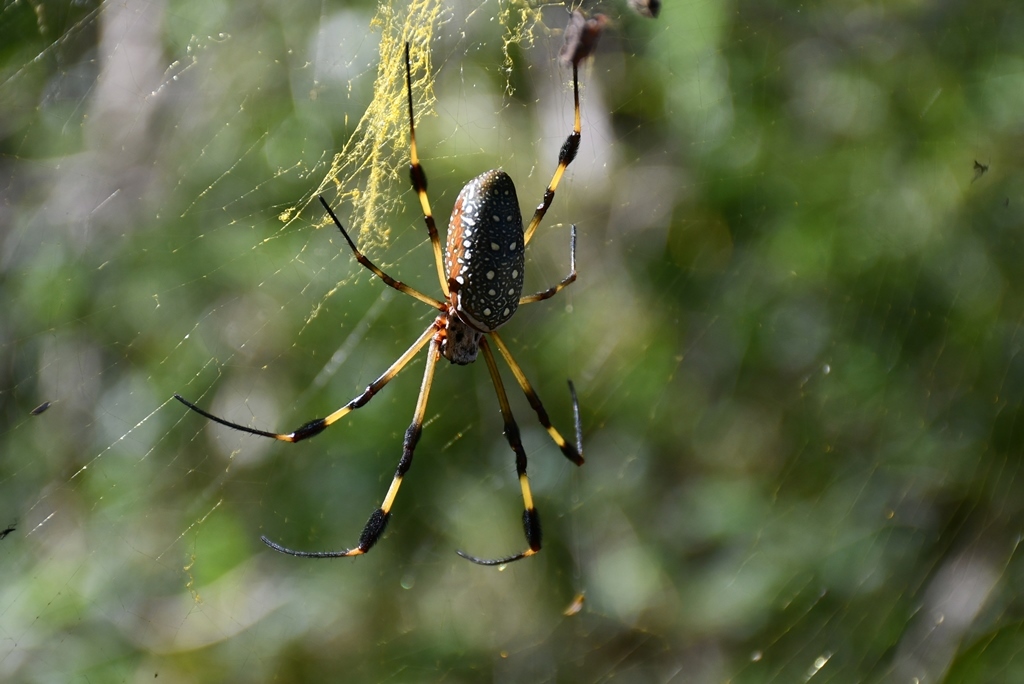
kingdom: Animalia
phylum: Arthropoda
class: Arachnida
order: Araneae
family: Araneidae
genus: Trichonephila
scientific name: Trichonephila clavipes
